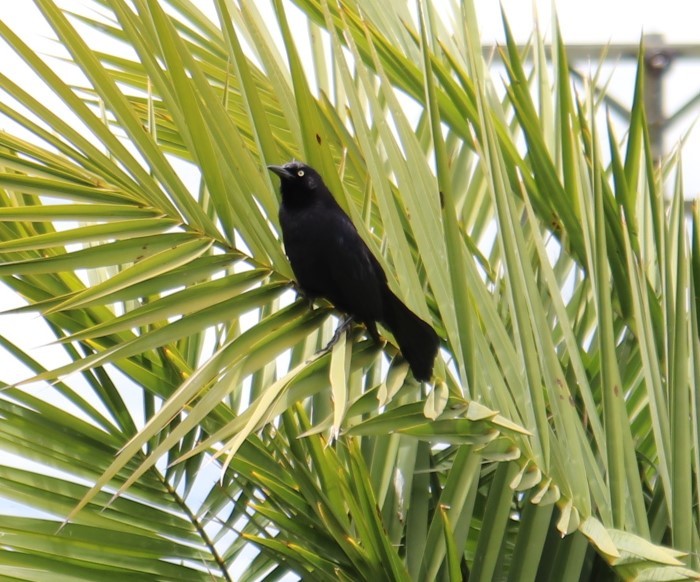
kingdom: Animalia
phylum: Chordata
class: Aves
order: Passeriformes
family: Icteridae
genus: Quiscalus
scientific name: Quiscalus lugubris
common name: Carib grackle
